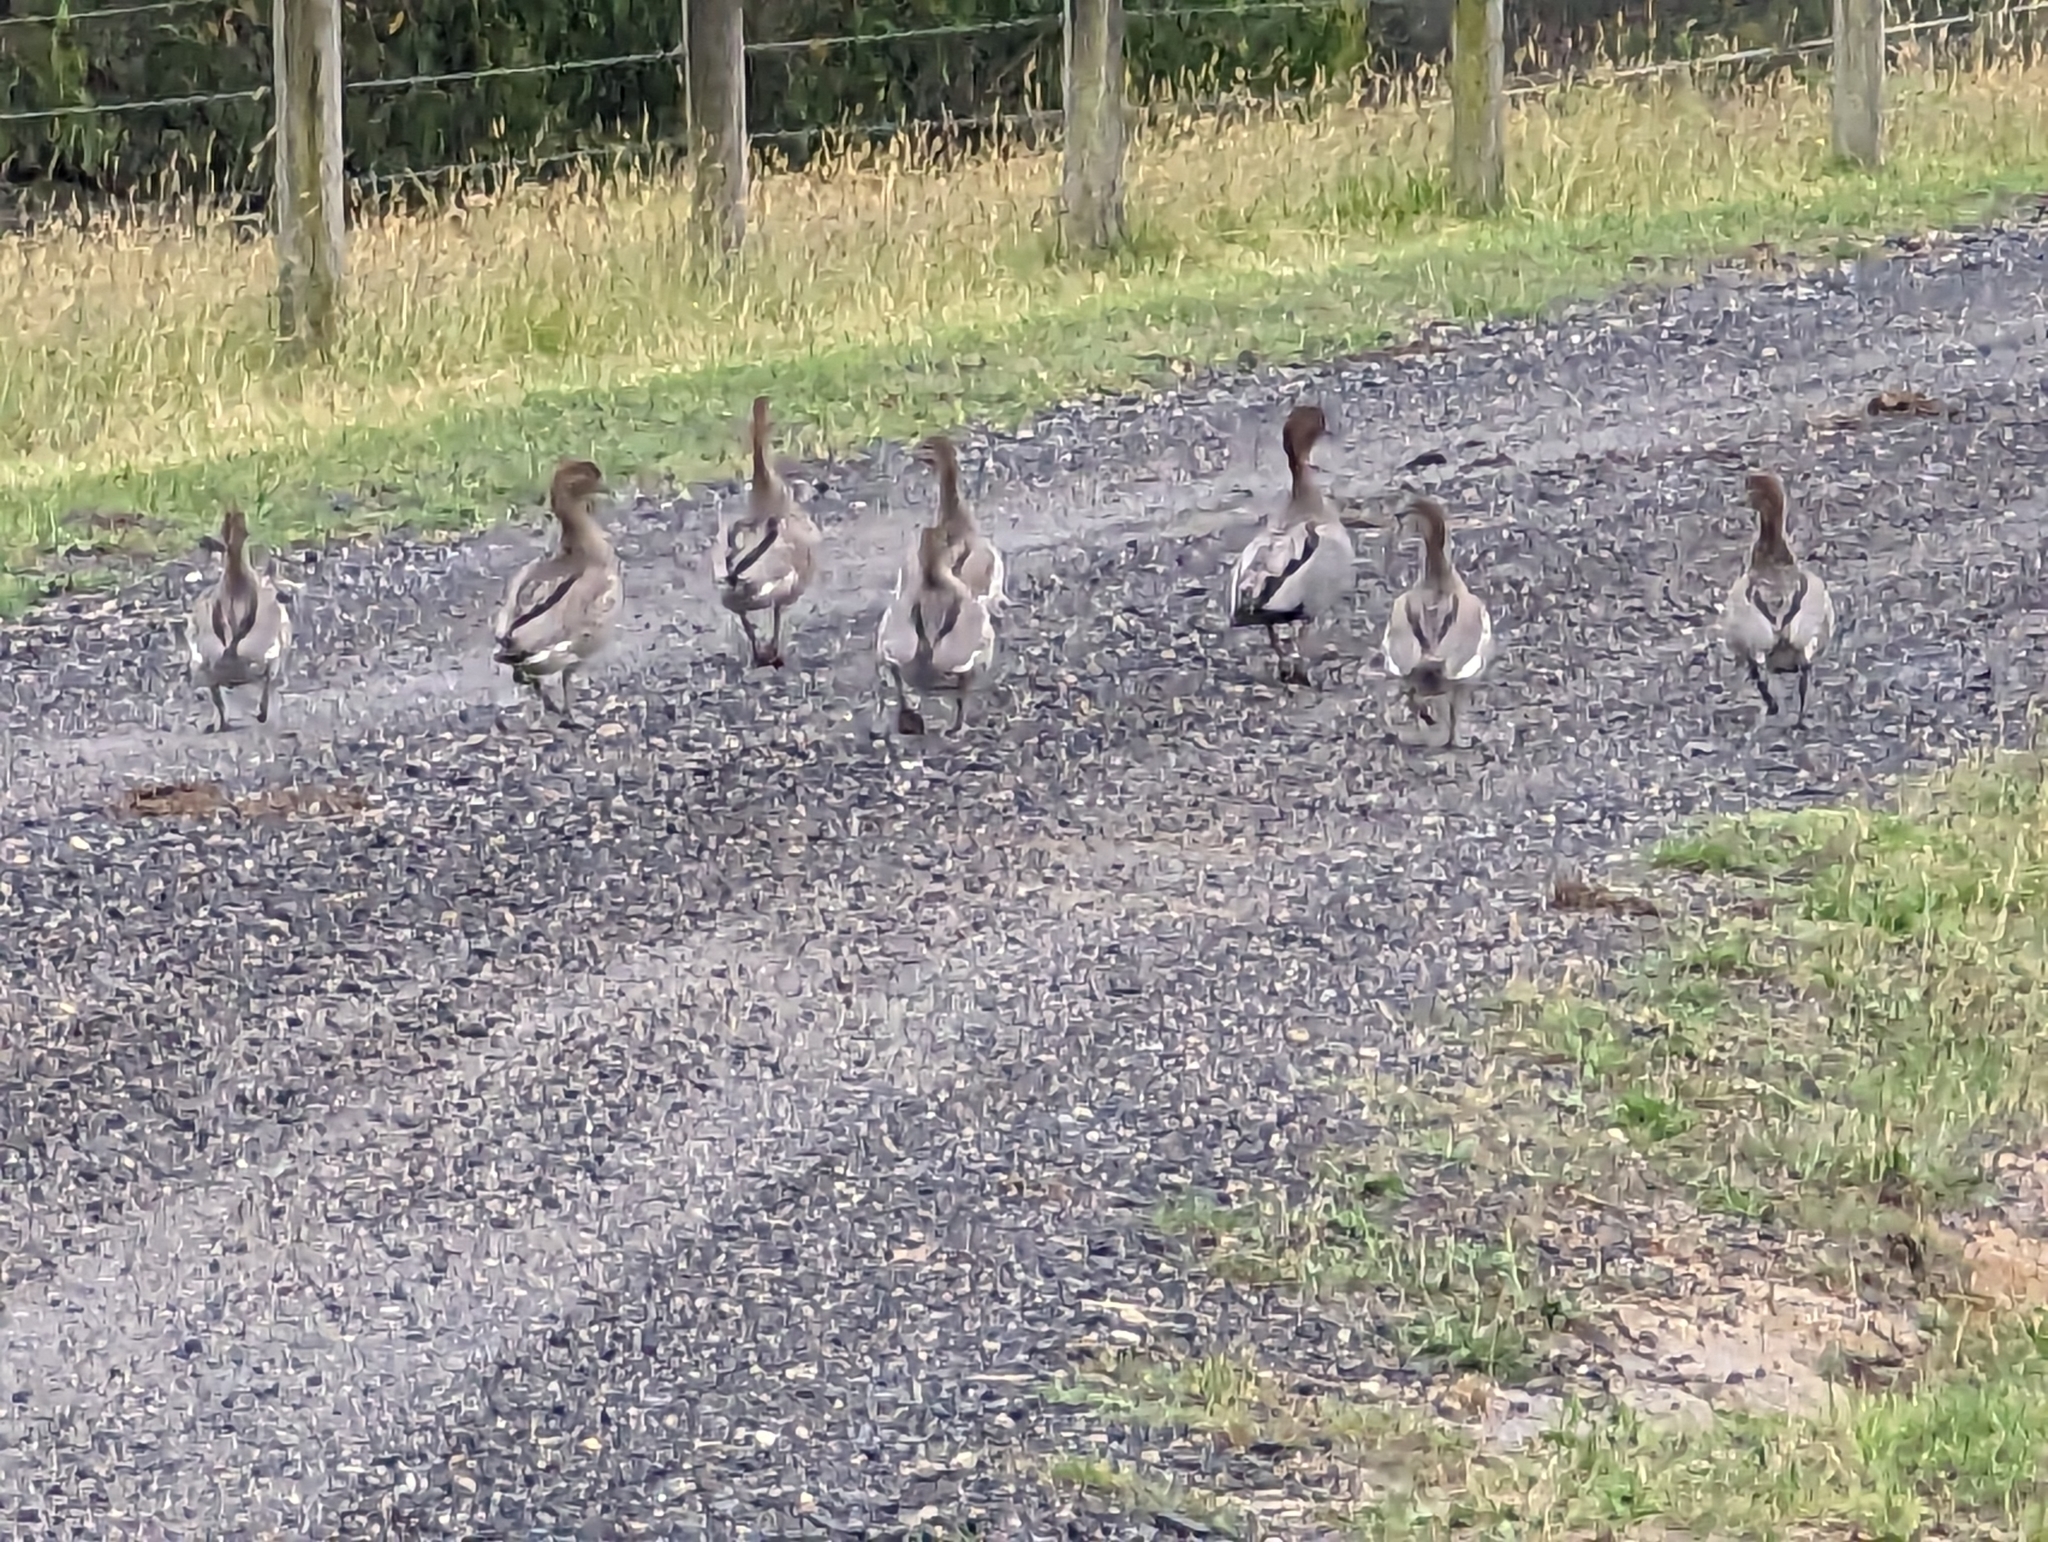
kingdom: Animalia
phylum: Chordata
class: Aves
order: Anseriformes
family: Anatidae
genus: Chenonetta
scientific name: Chenonetta jubata
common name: Maned duck
